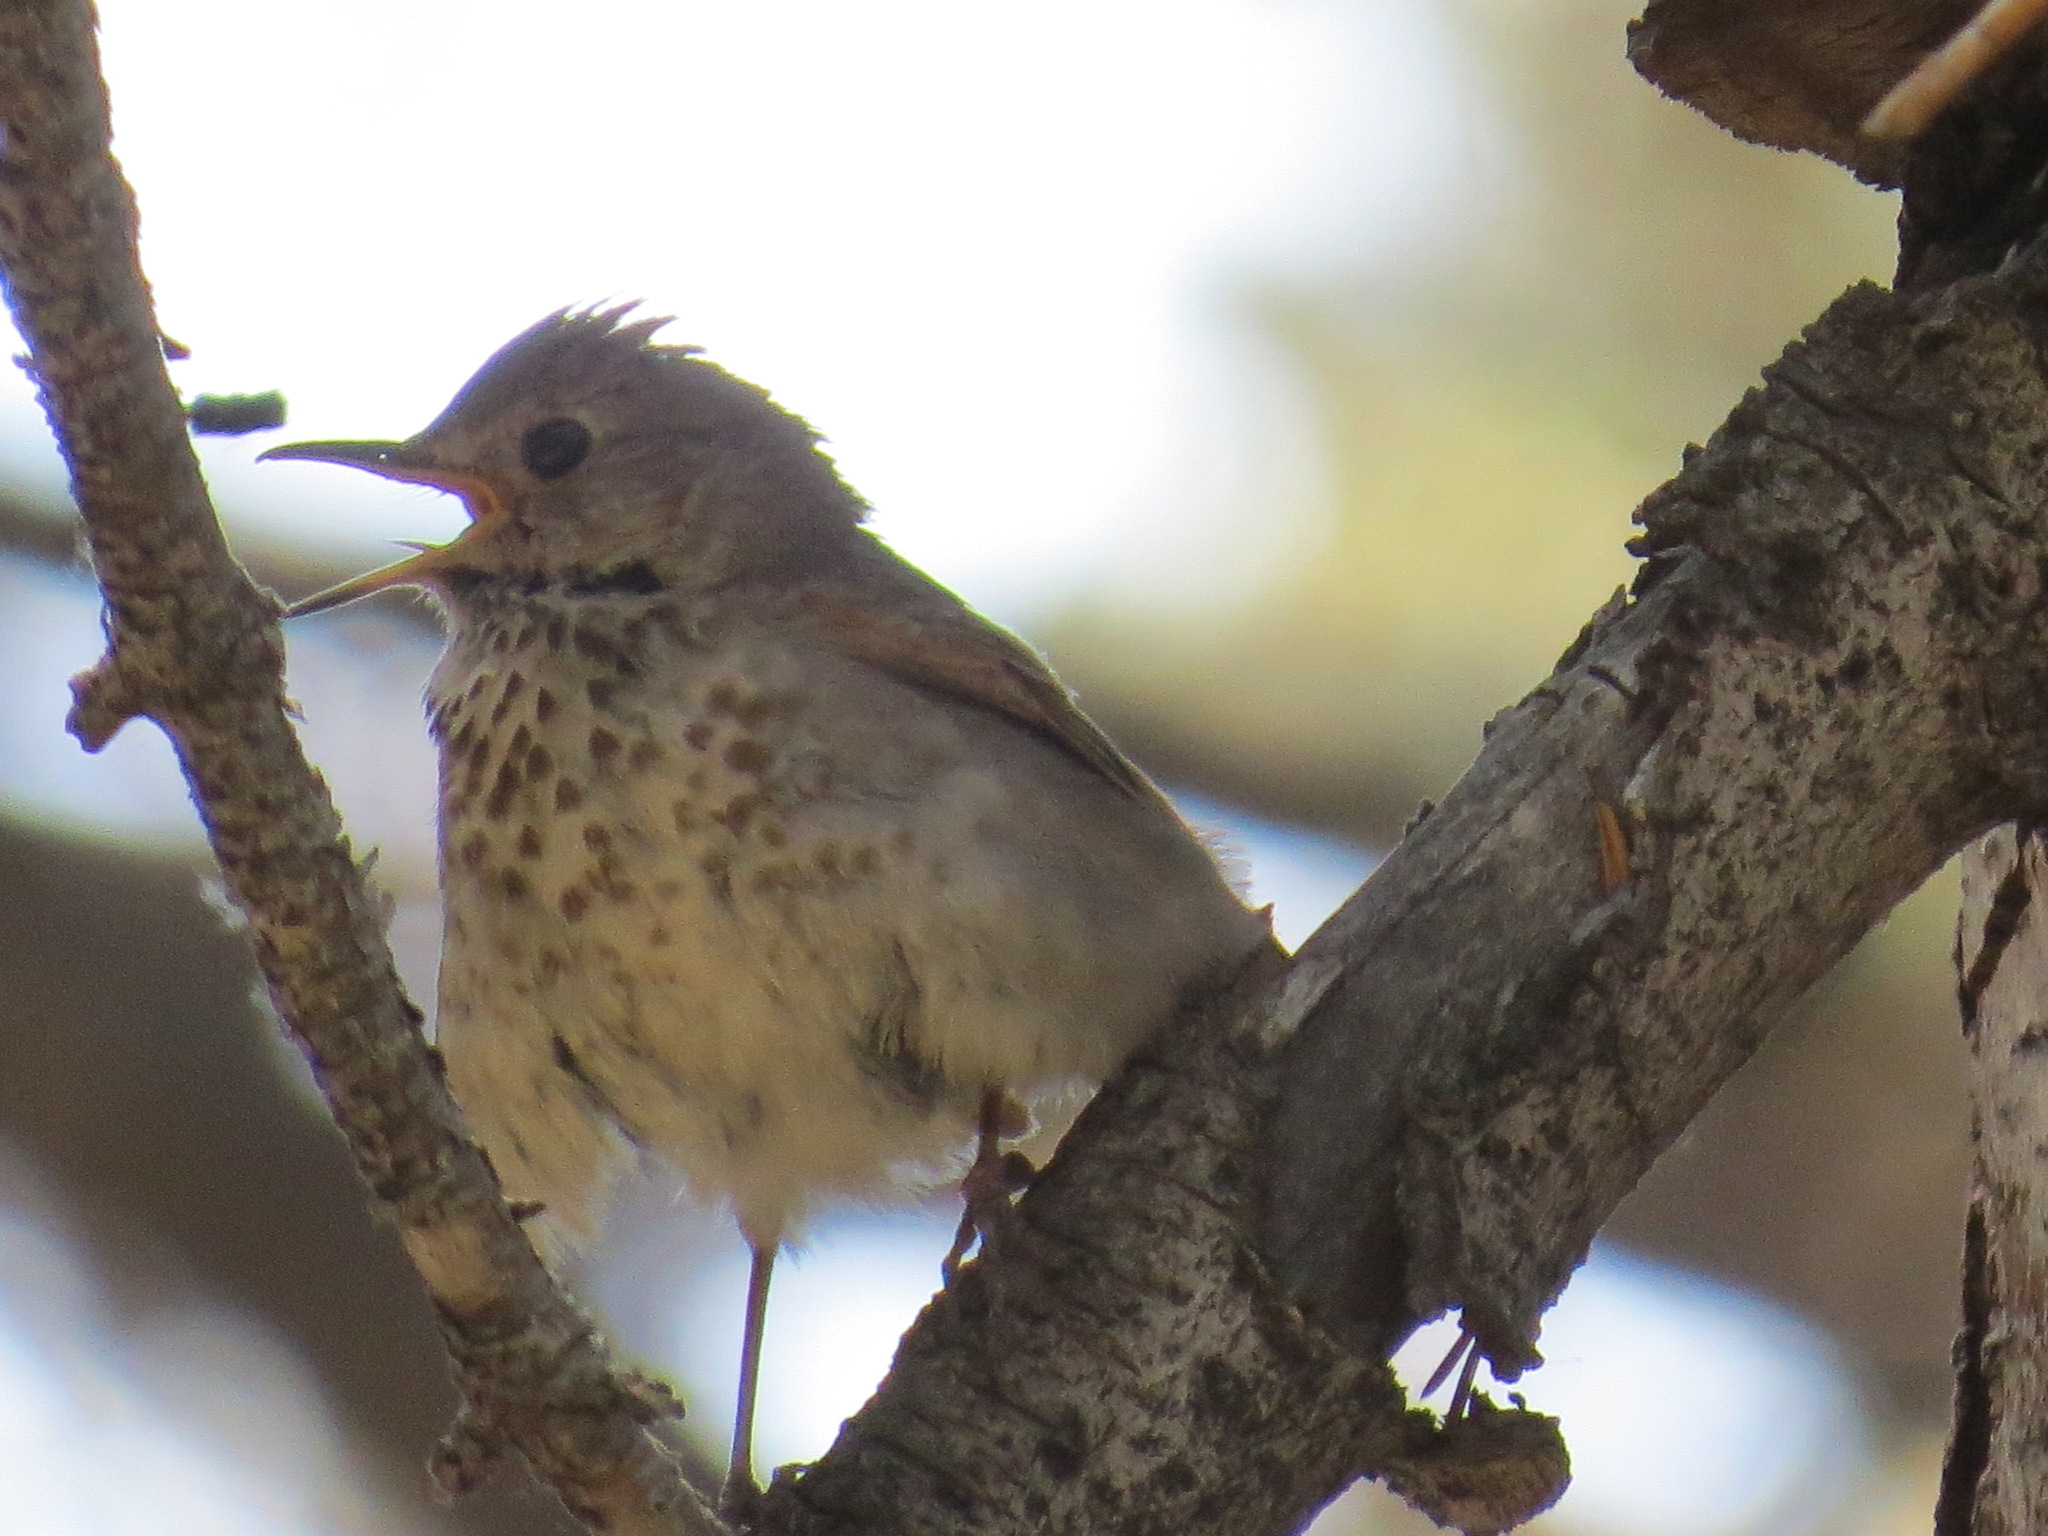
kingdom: Animalia
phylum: Chordata
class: Aves
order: Passeriformes
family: Turdidae
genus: Catharus
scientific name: Catharus guttatus
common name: Hermit thrush
